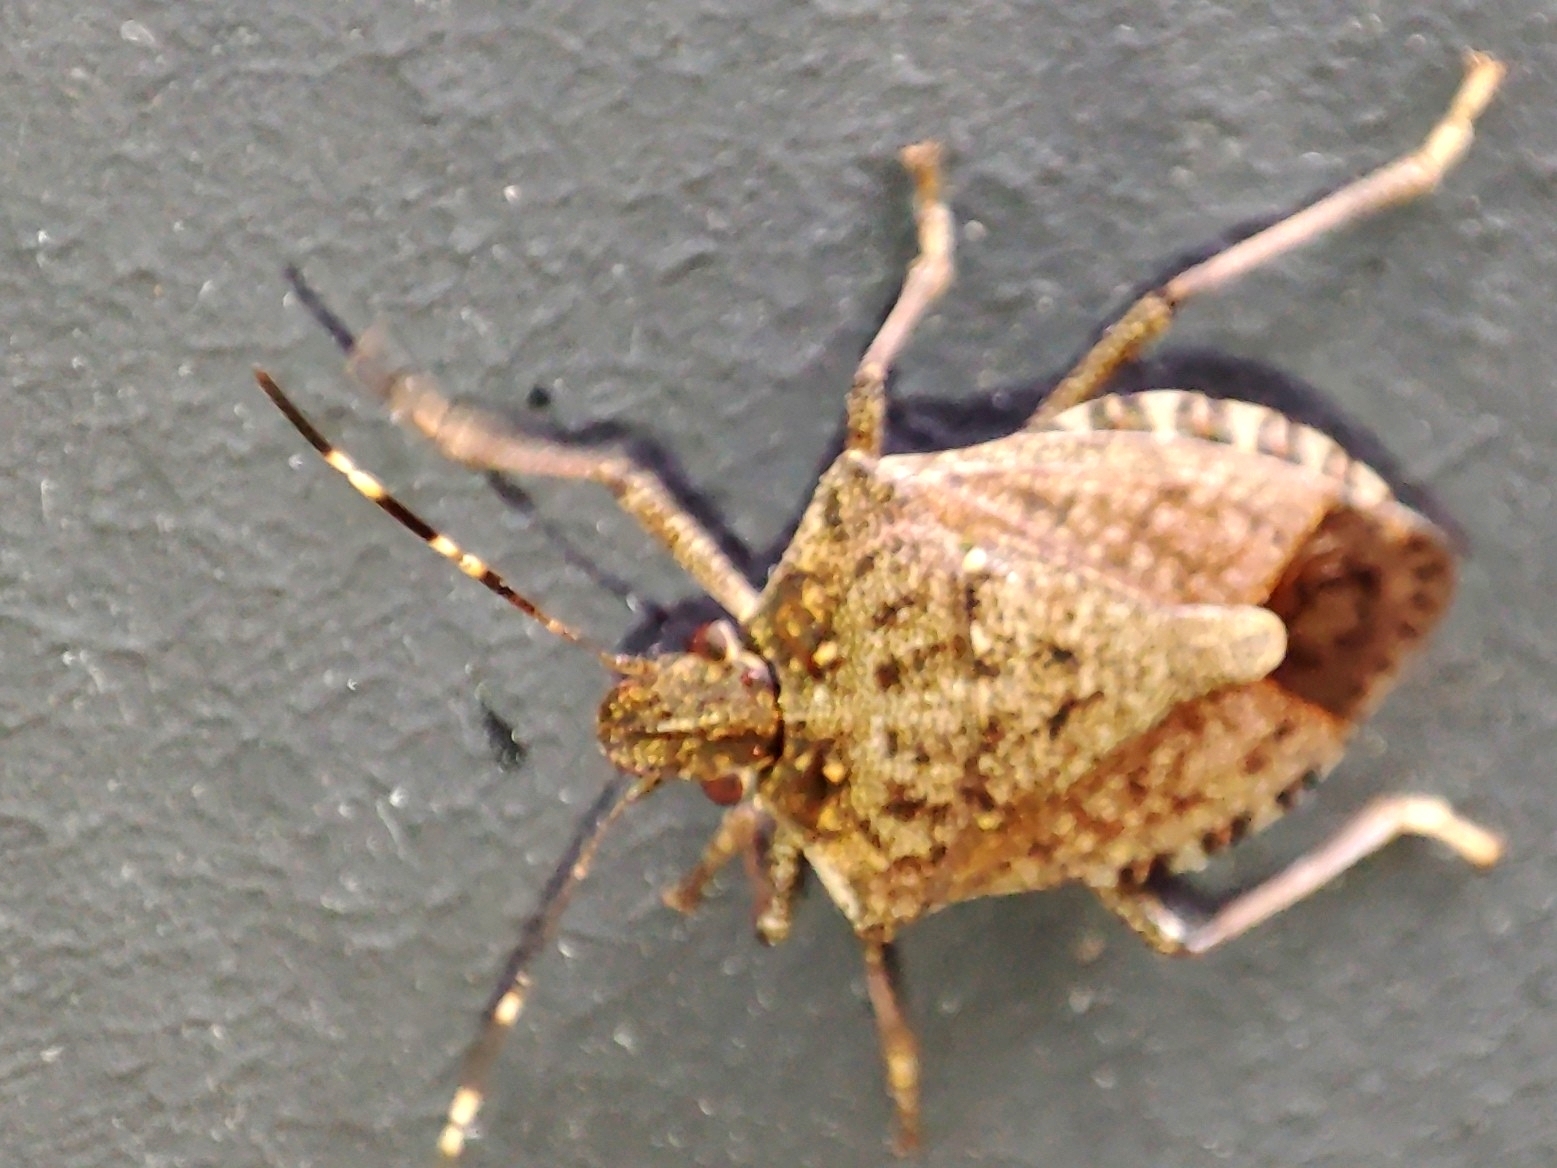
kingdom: Animalia
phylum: Arthropoda
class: Insecta
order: Hemiptera
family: Pentatomidae
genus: Halyomorpha
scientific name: Halyomorpha halys
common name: Brown marmorated stink bug
